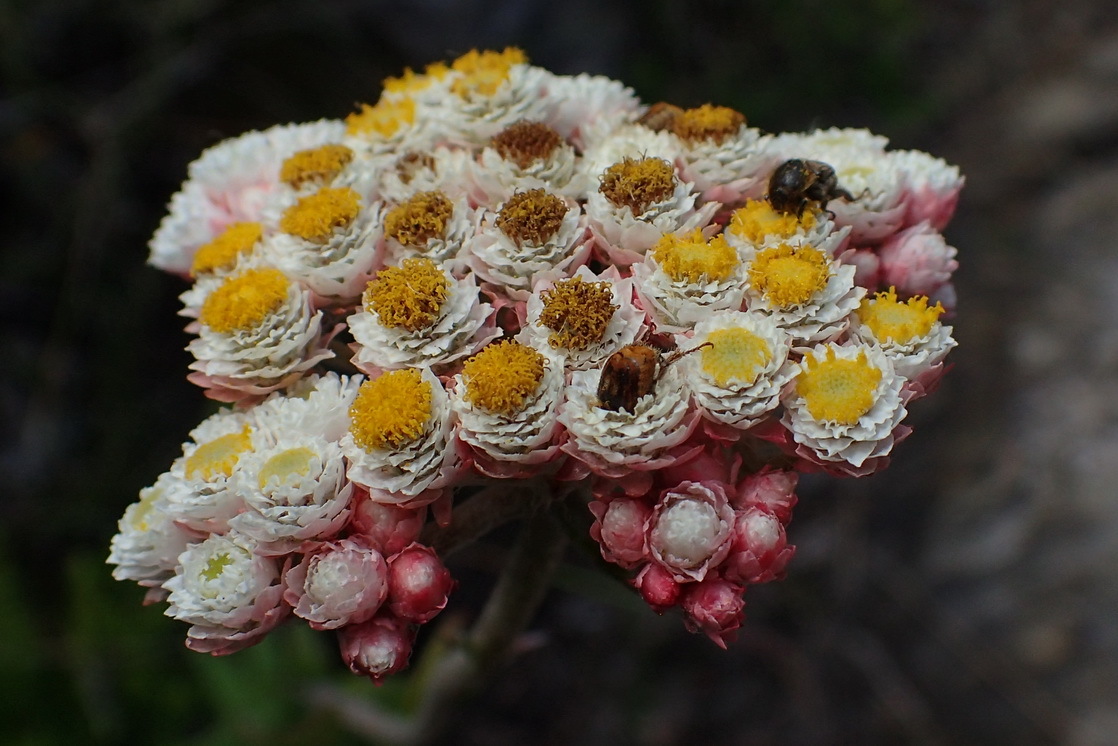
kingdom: Plantae
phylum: Tracheophyta
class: Magnoliopsida
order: Asterales
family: Asteraceae
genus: Helichrysum
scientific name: Helichrysum felinum
